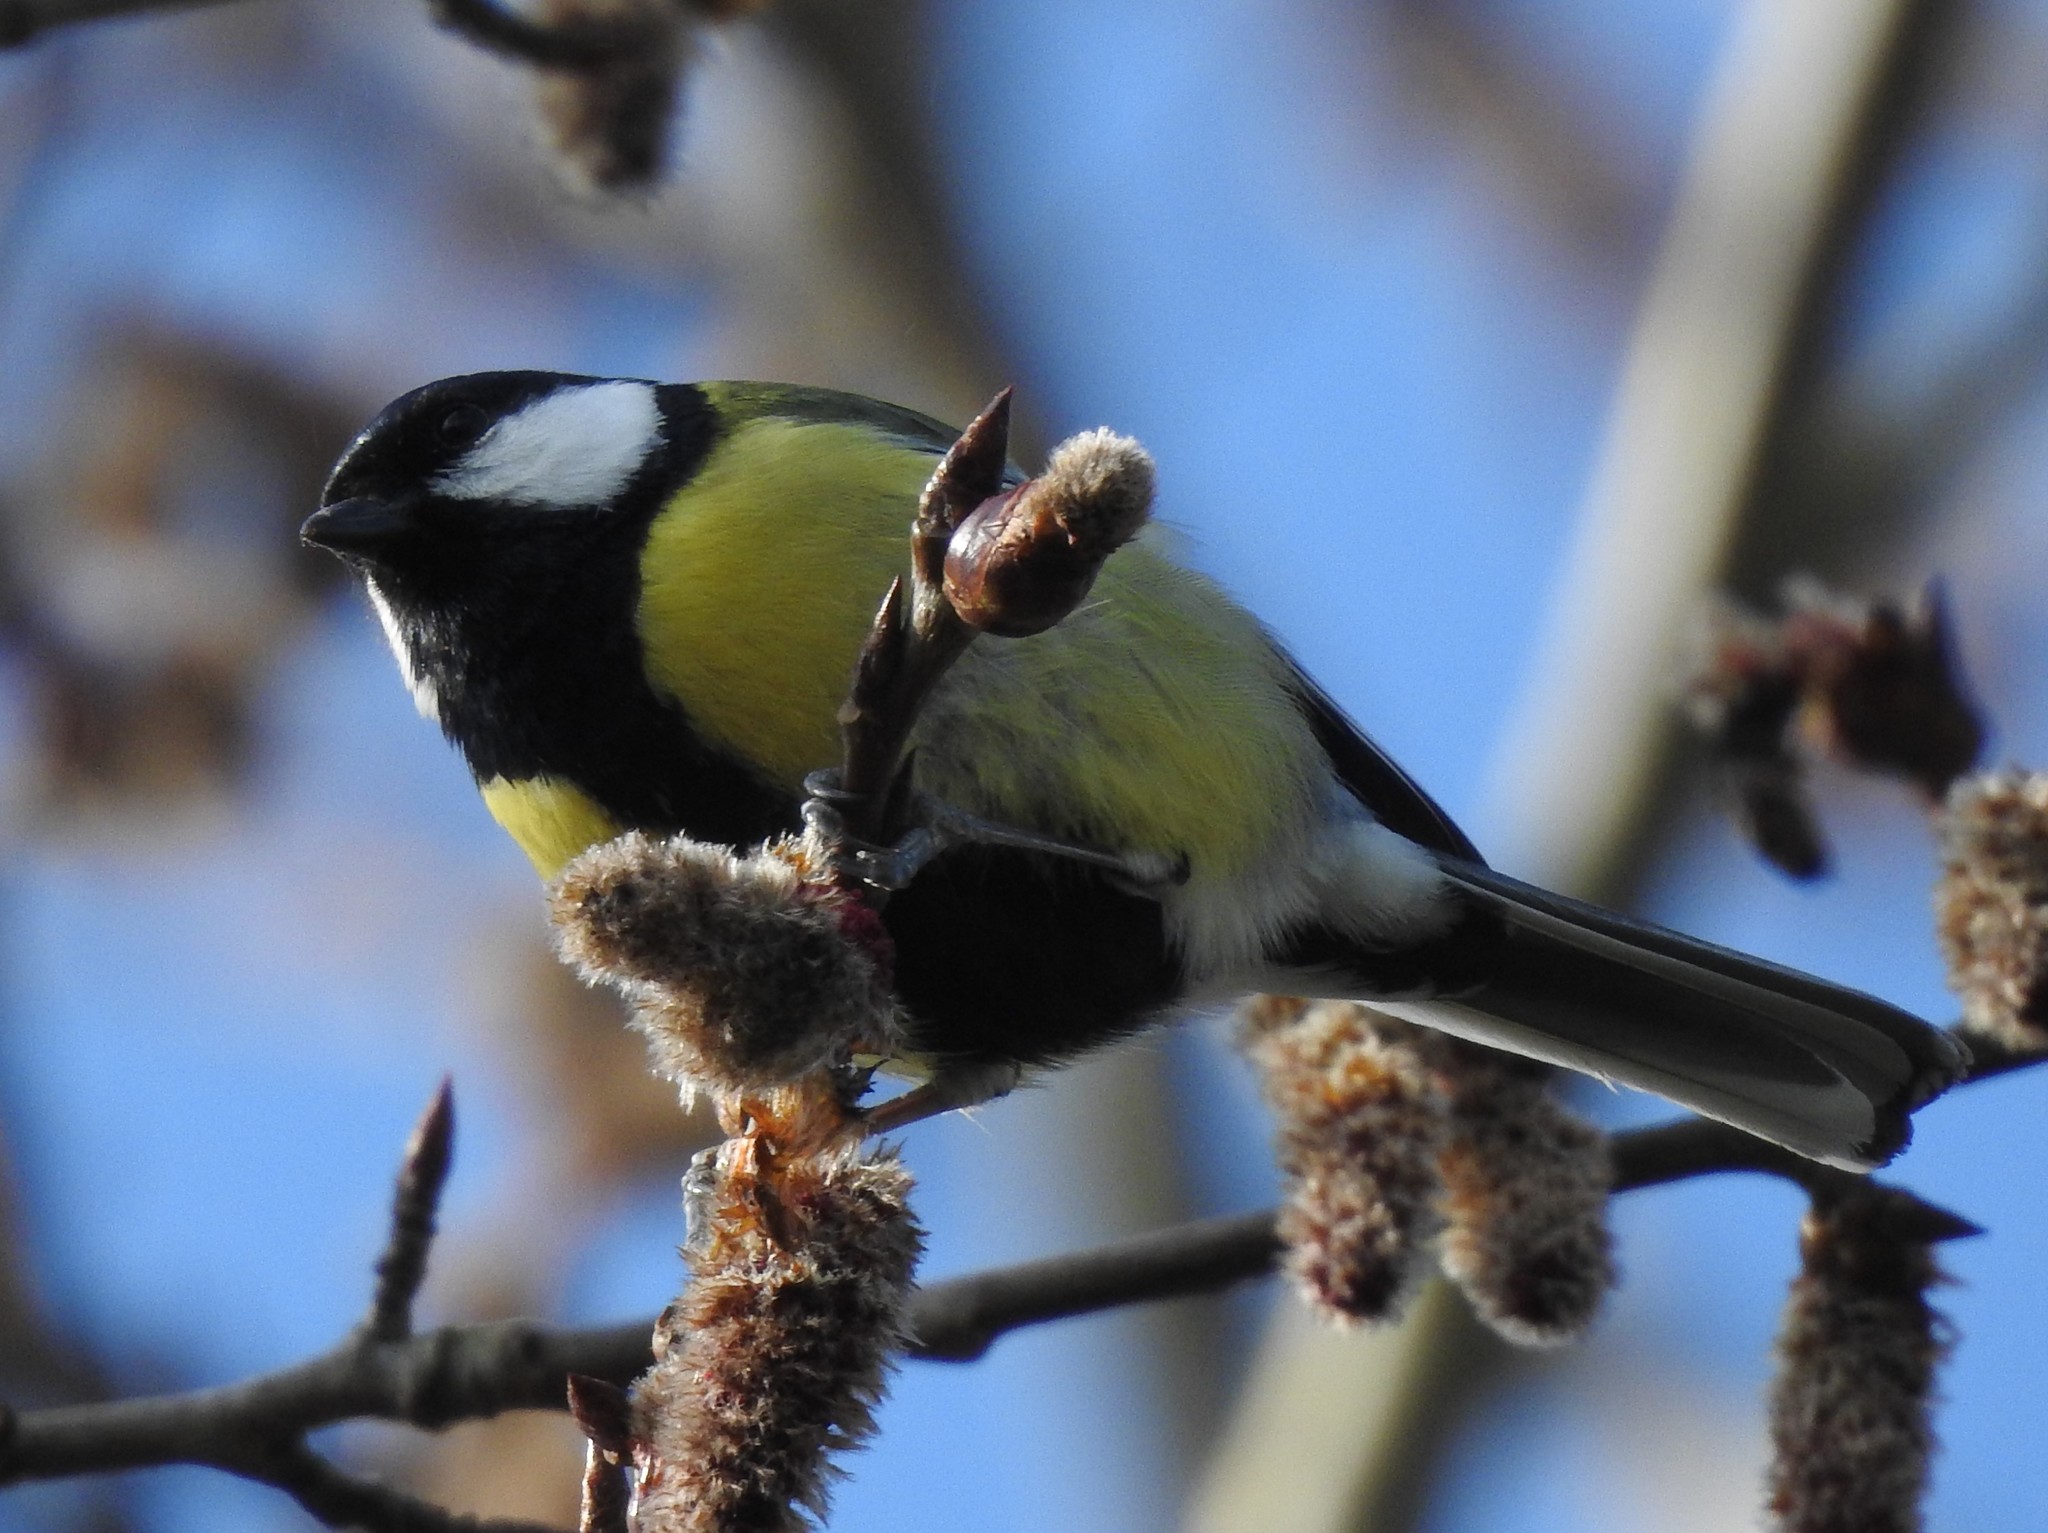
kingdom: Animalia
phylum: Chordata
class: Aves
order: Passeriformes
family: Paridae
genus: Parus
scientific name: Parus major
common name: Great tit
